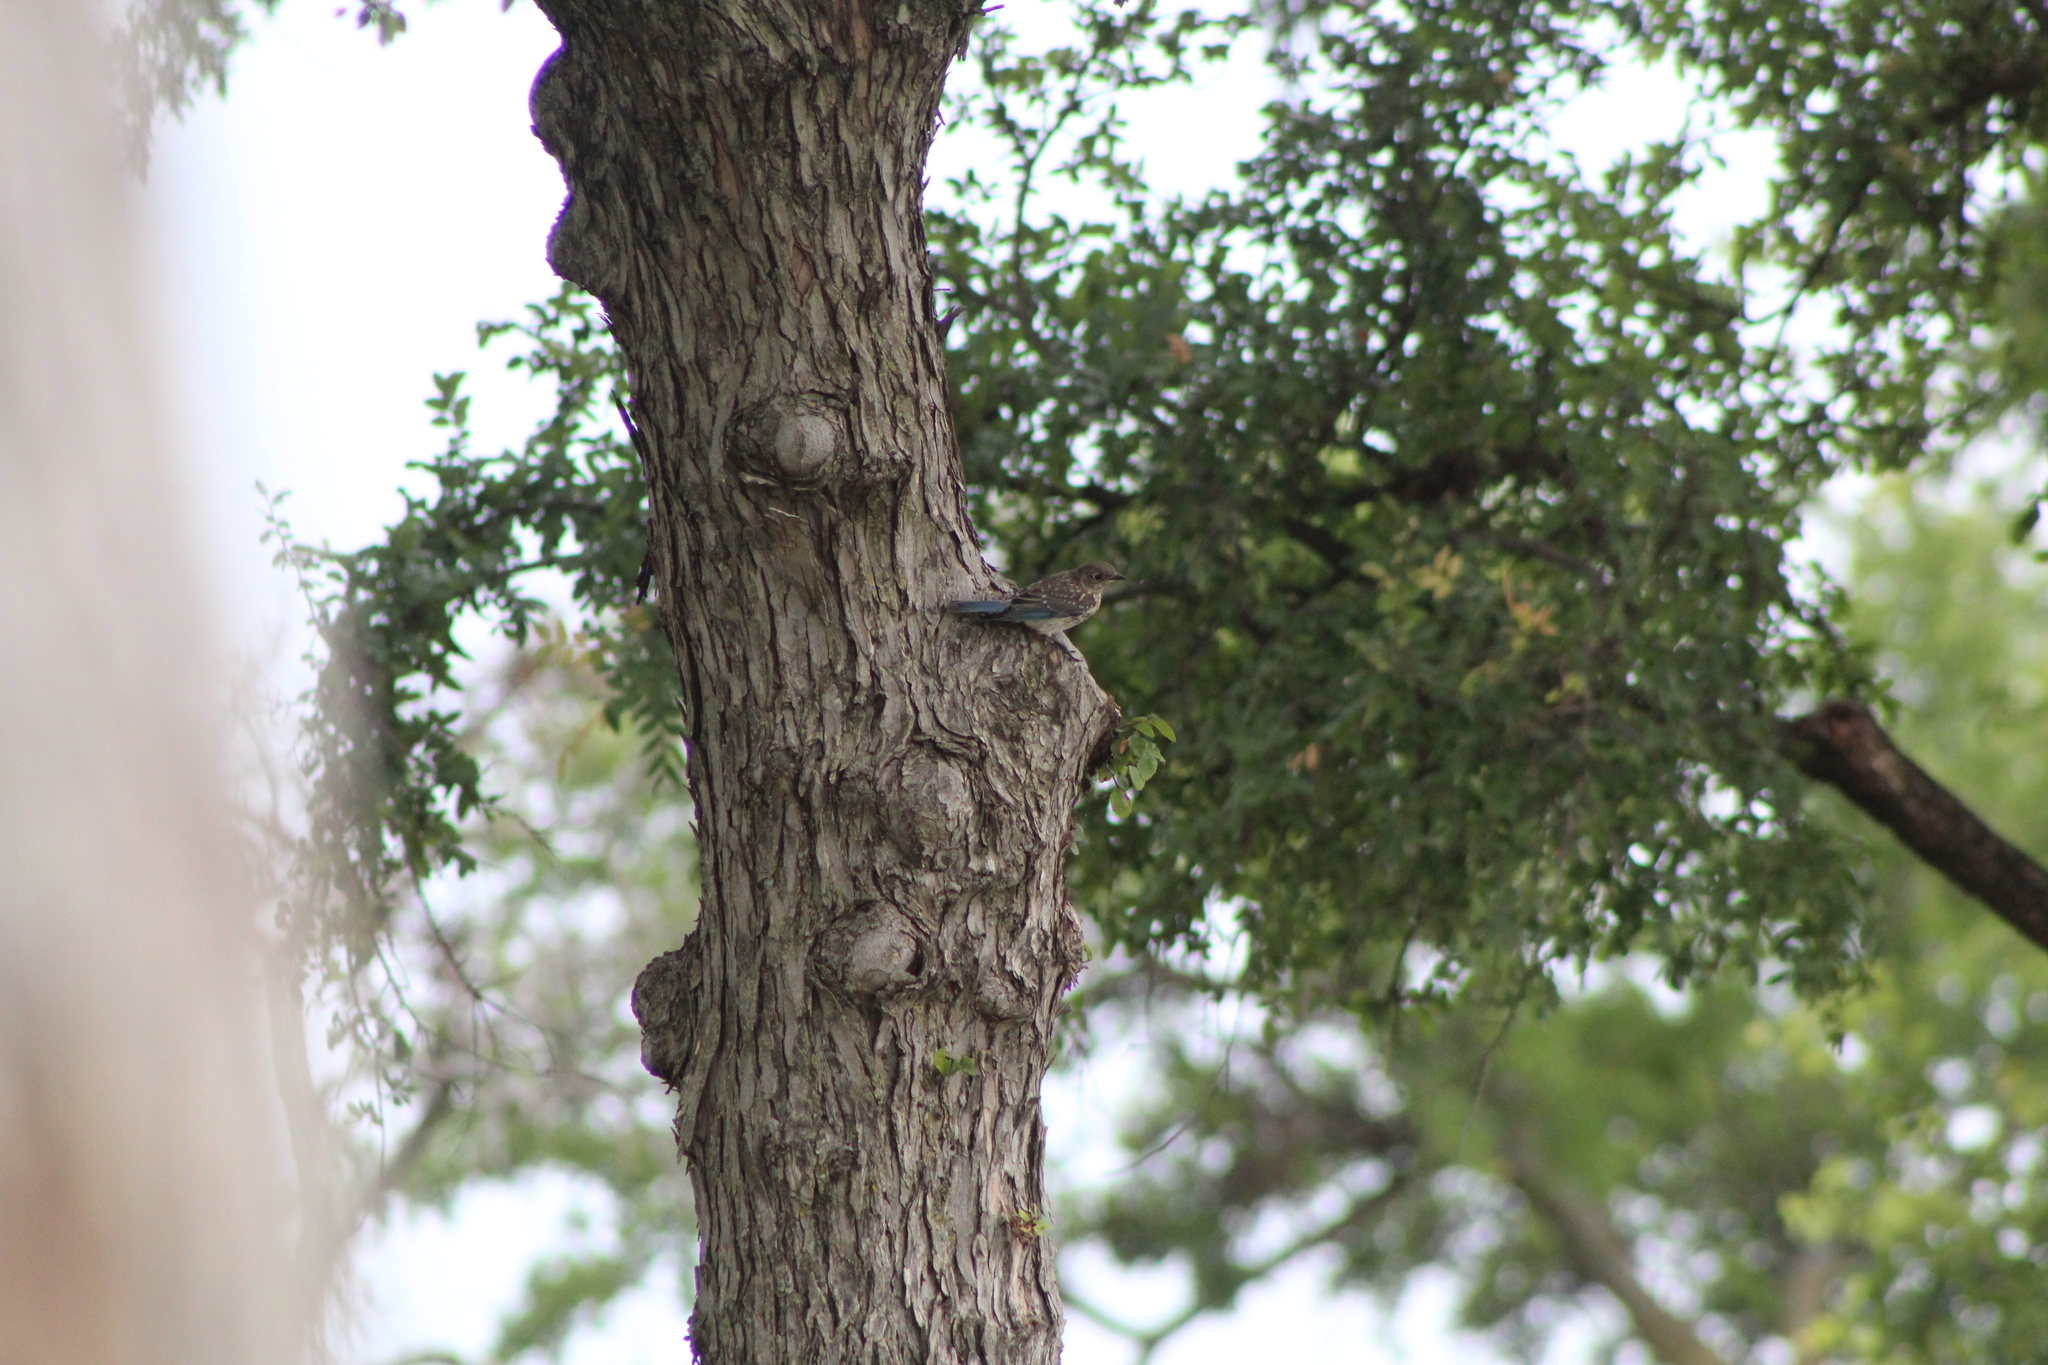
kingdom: Animalia
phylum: Chordata
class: Aves
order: Passeriformes
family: Turdidae
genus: Sialia
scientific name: Sialia sialis
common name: Eastern bluebird
